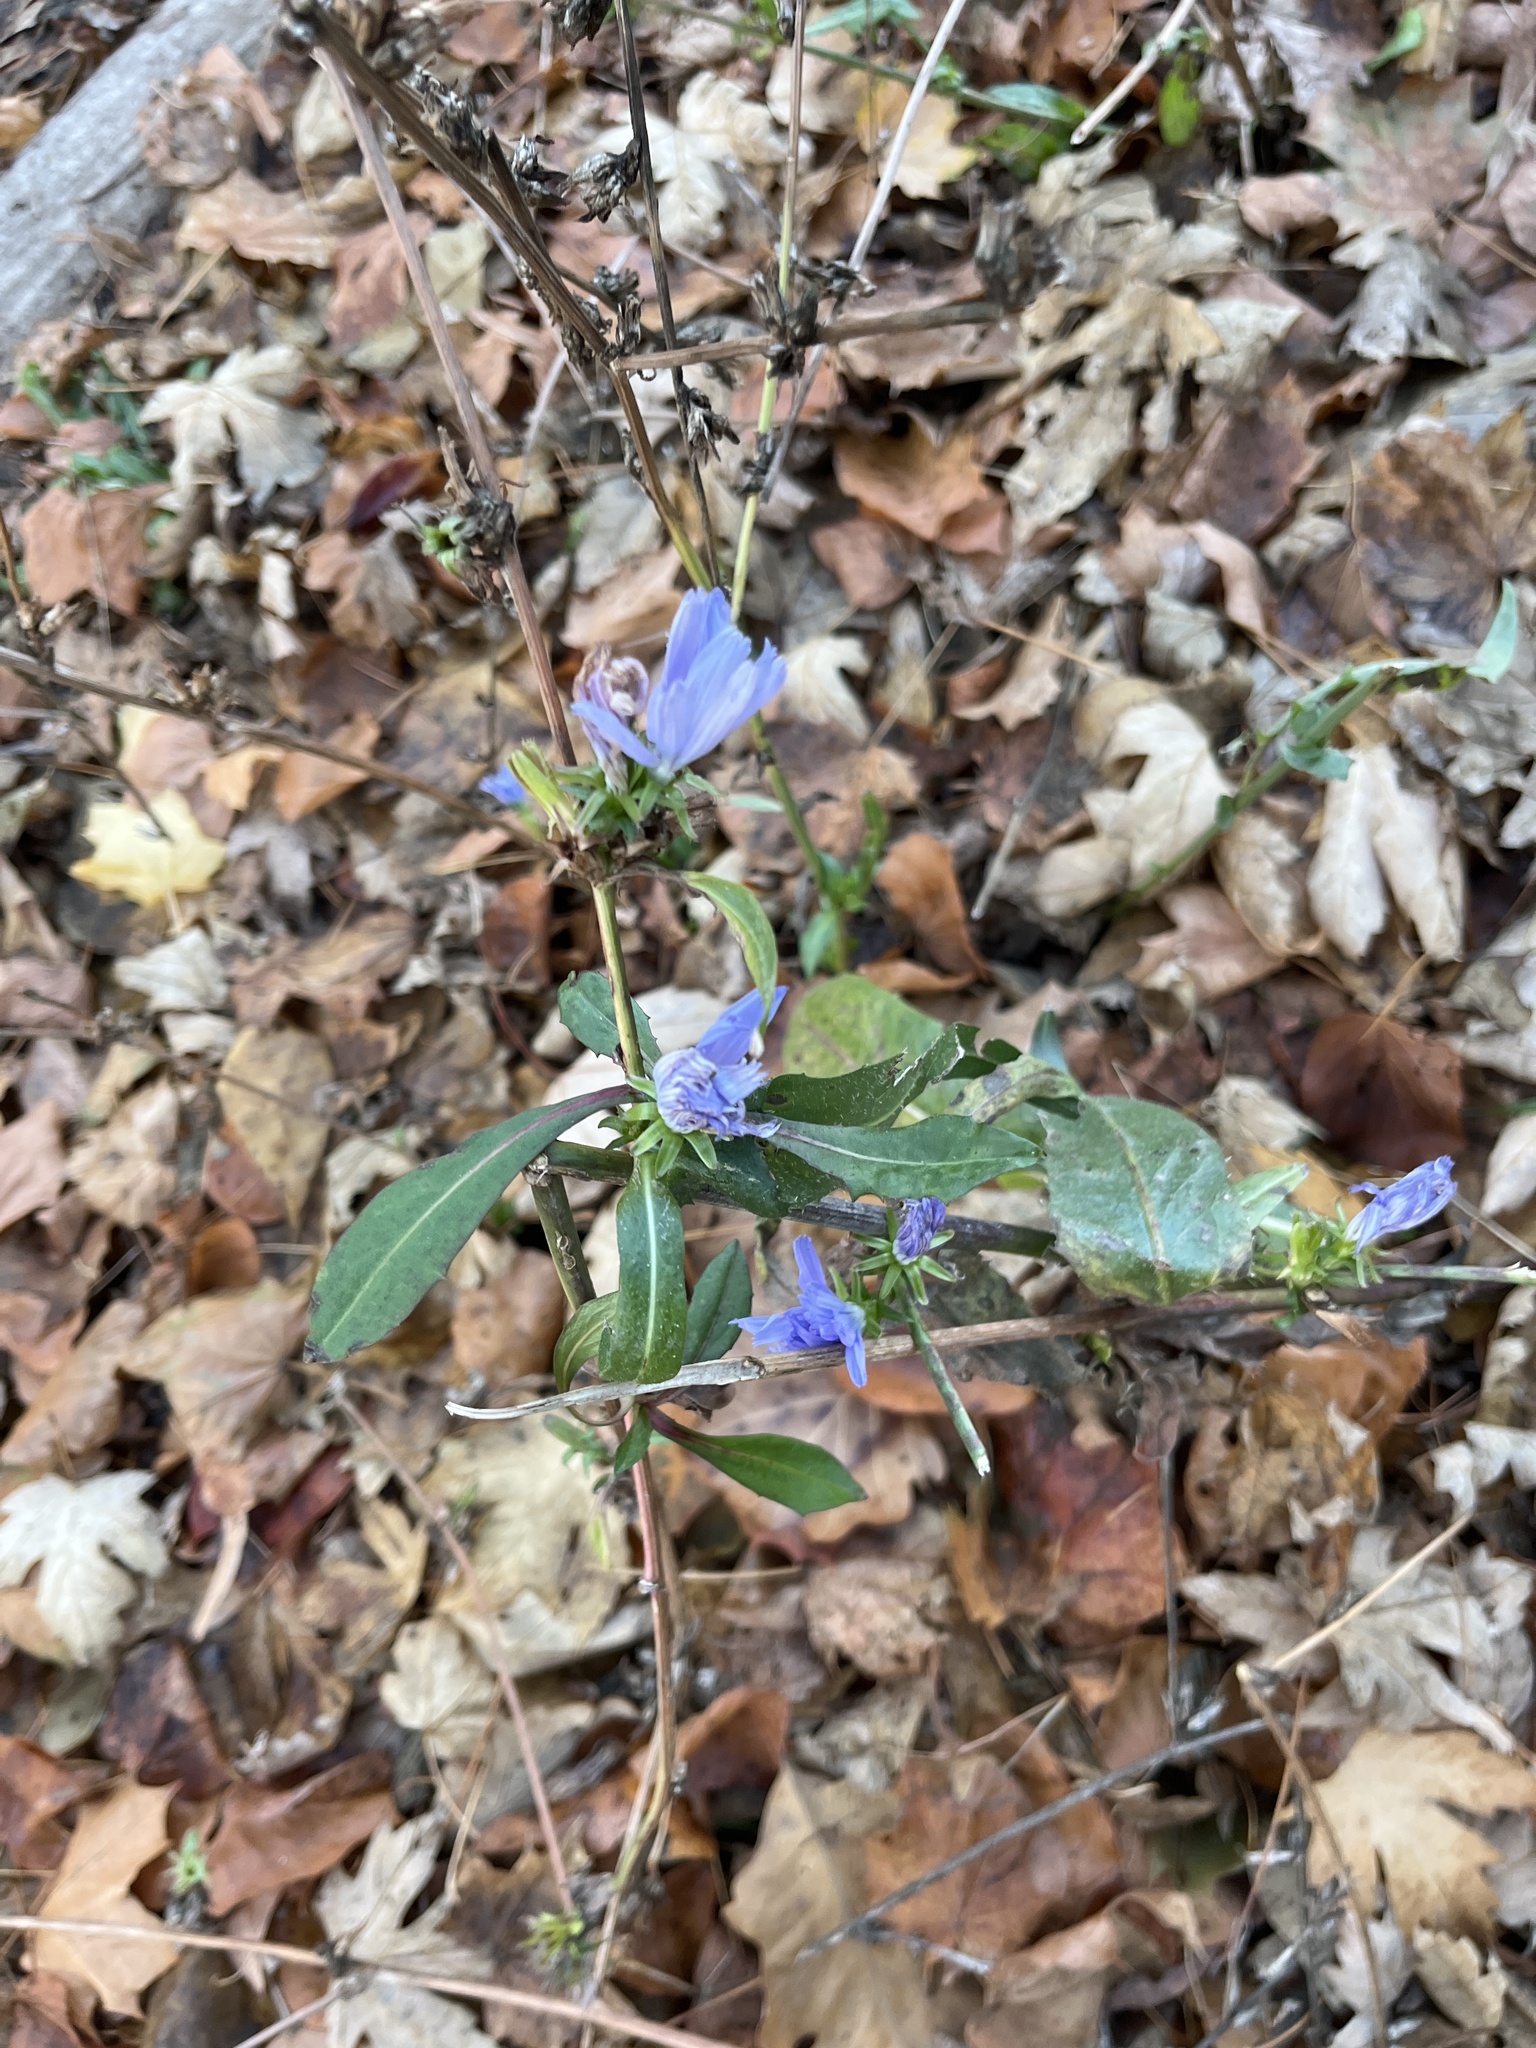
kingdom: Plantae
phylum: Tracheophyta
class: Magnoliopsida
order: Asterales
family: Asteraceae
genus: Cichorium
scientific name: Cichorium intybus
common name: Chicory
